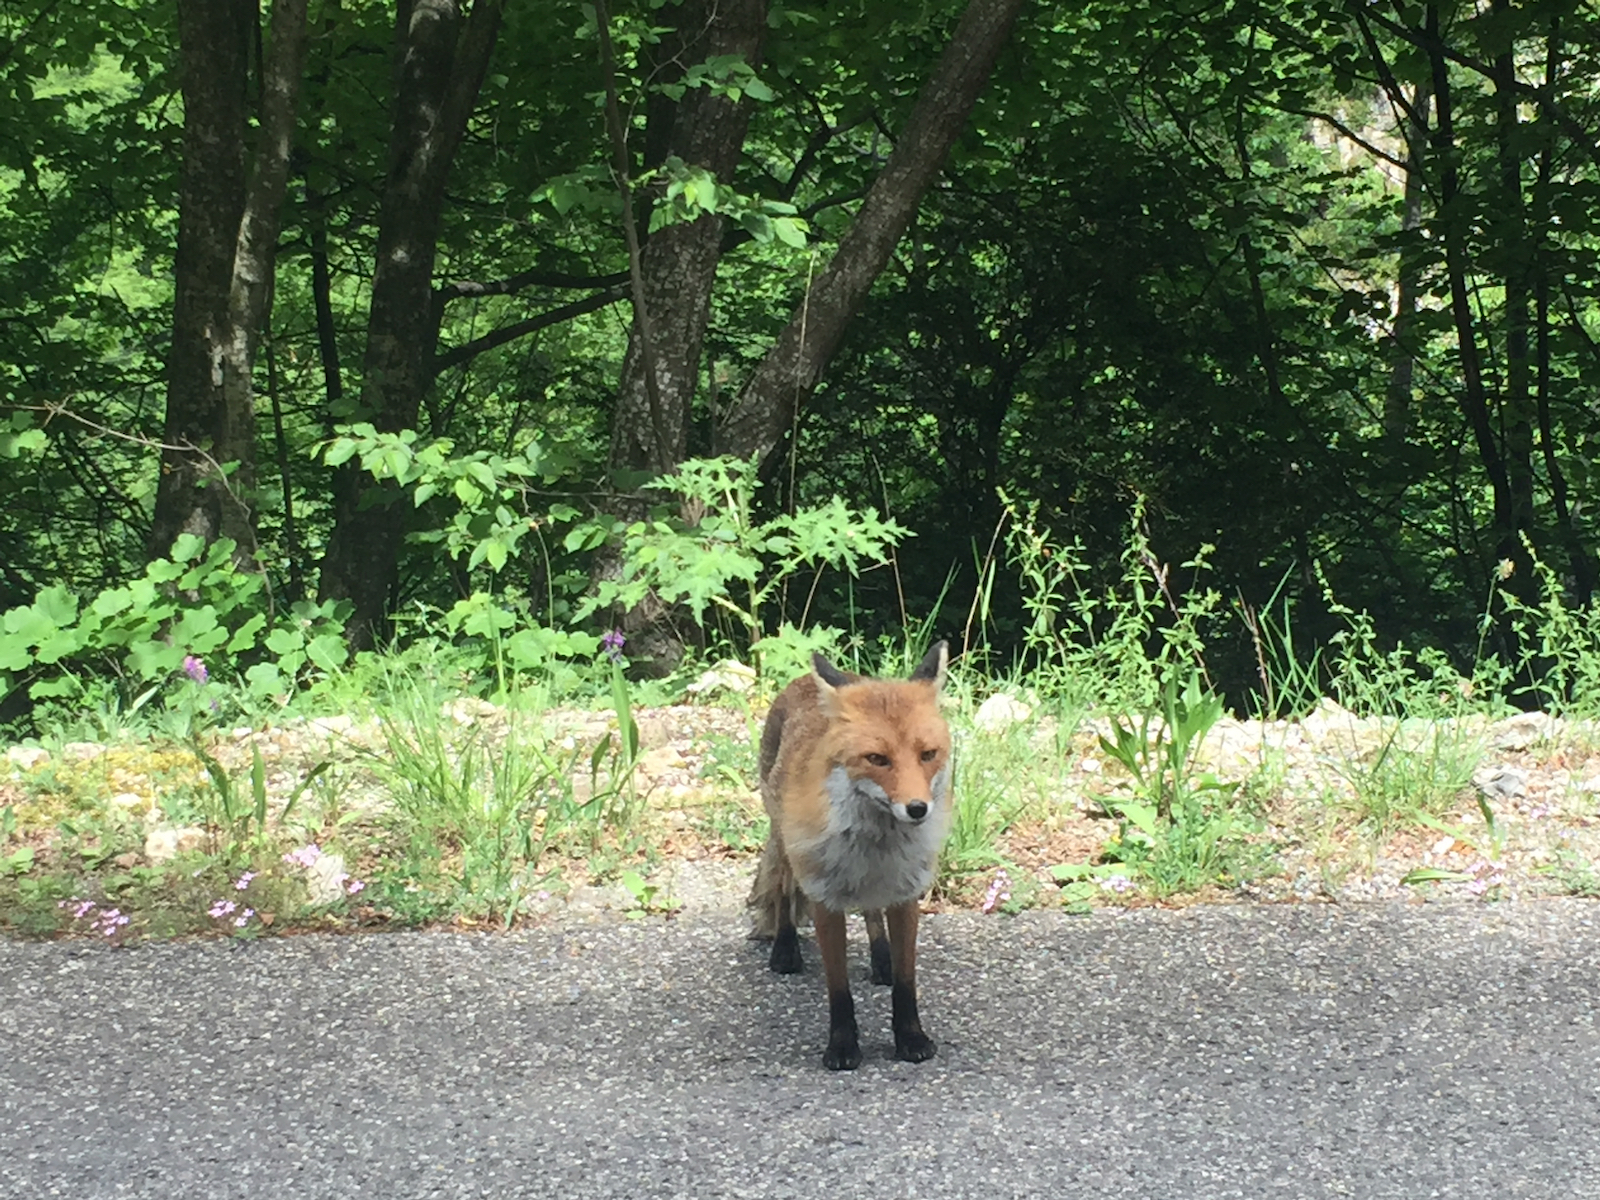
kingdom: Animalia
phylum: Chordata
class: Mammalia
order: Carnivora
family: Canidae
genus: Vulpes
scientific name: Vulpes vulpes
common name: Red fox
